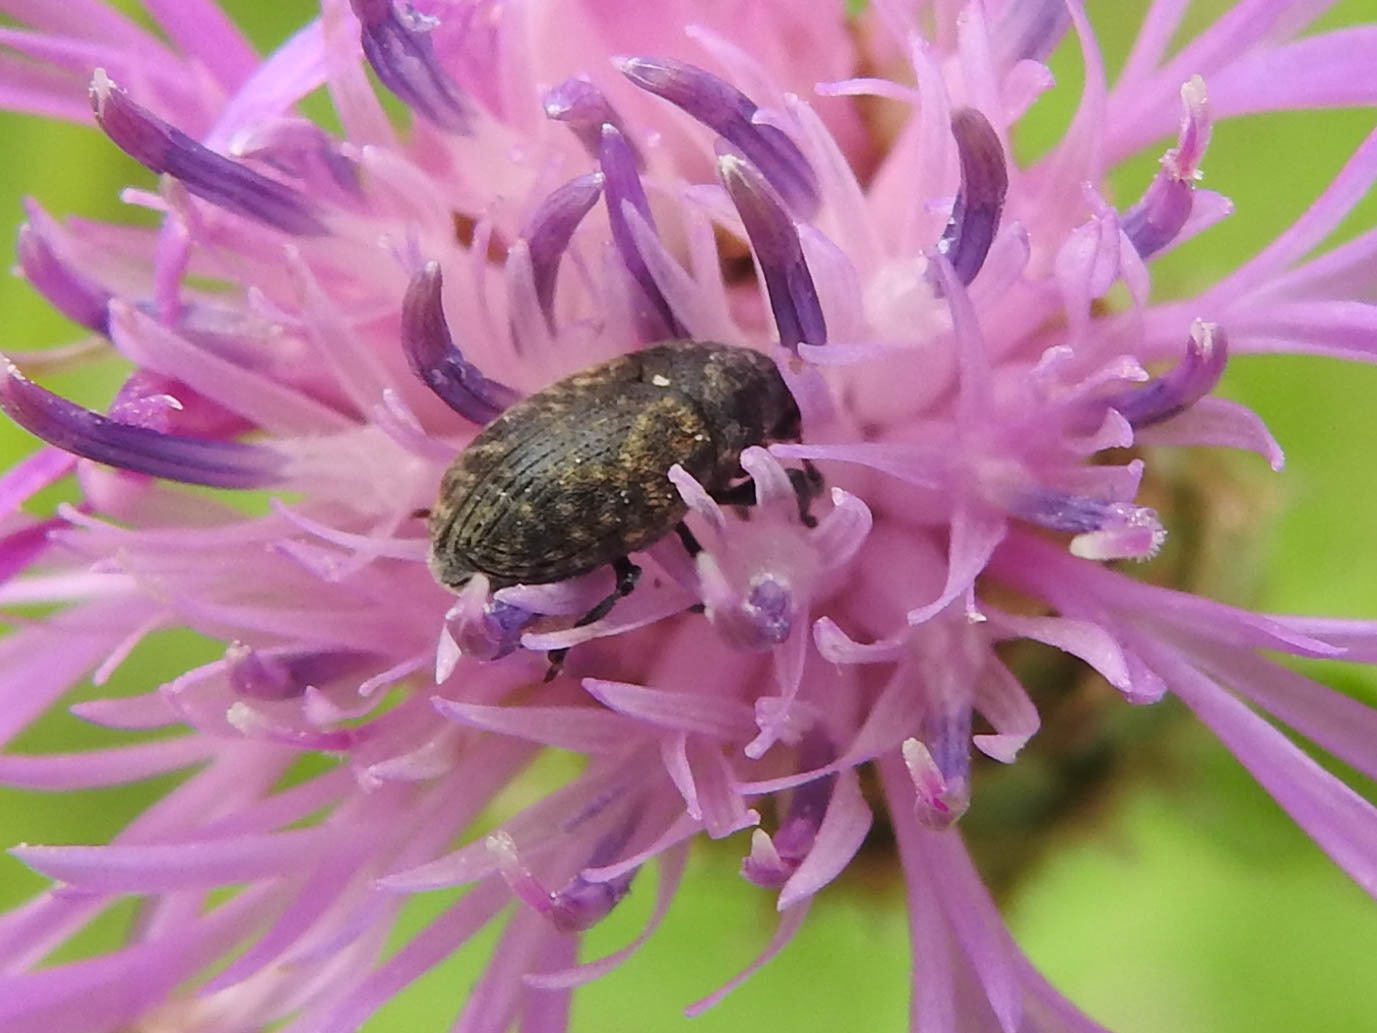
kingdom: Animalia
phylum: Arthropoda
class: Insecta
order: Coleoptera
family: Curculionidae
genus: Larinus
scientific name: Larinus obtusus
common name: Weevil
